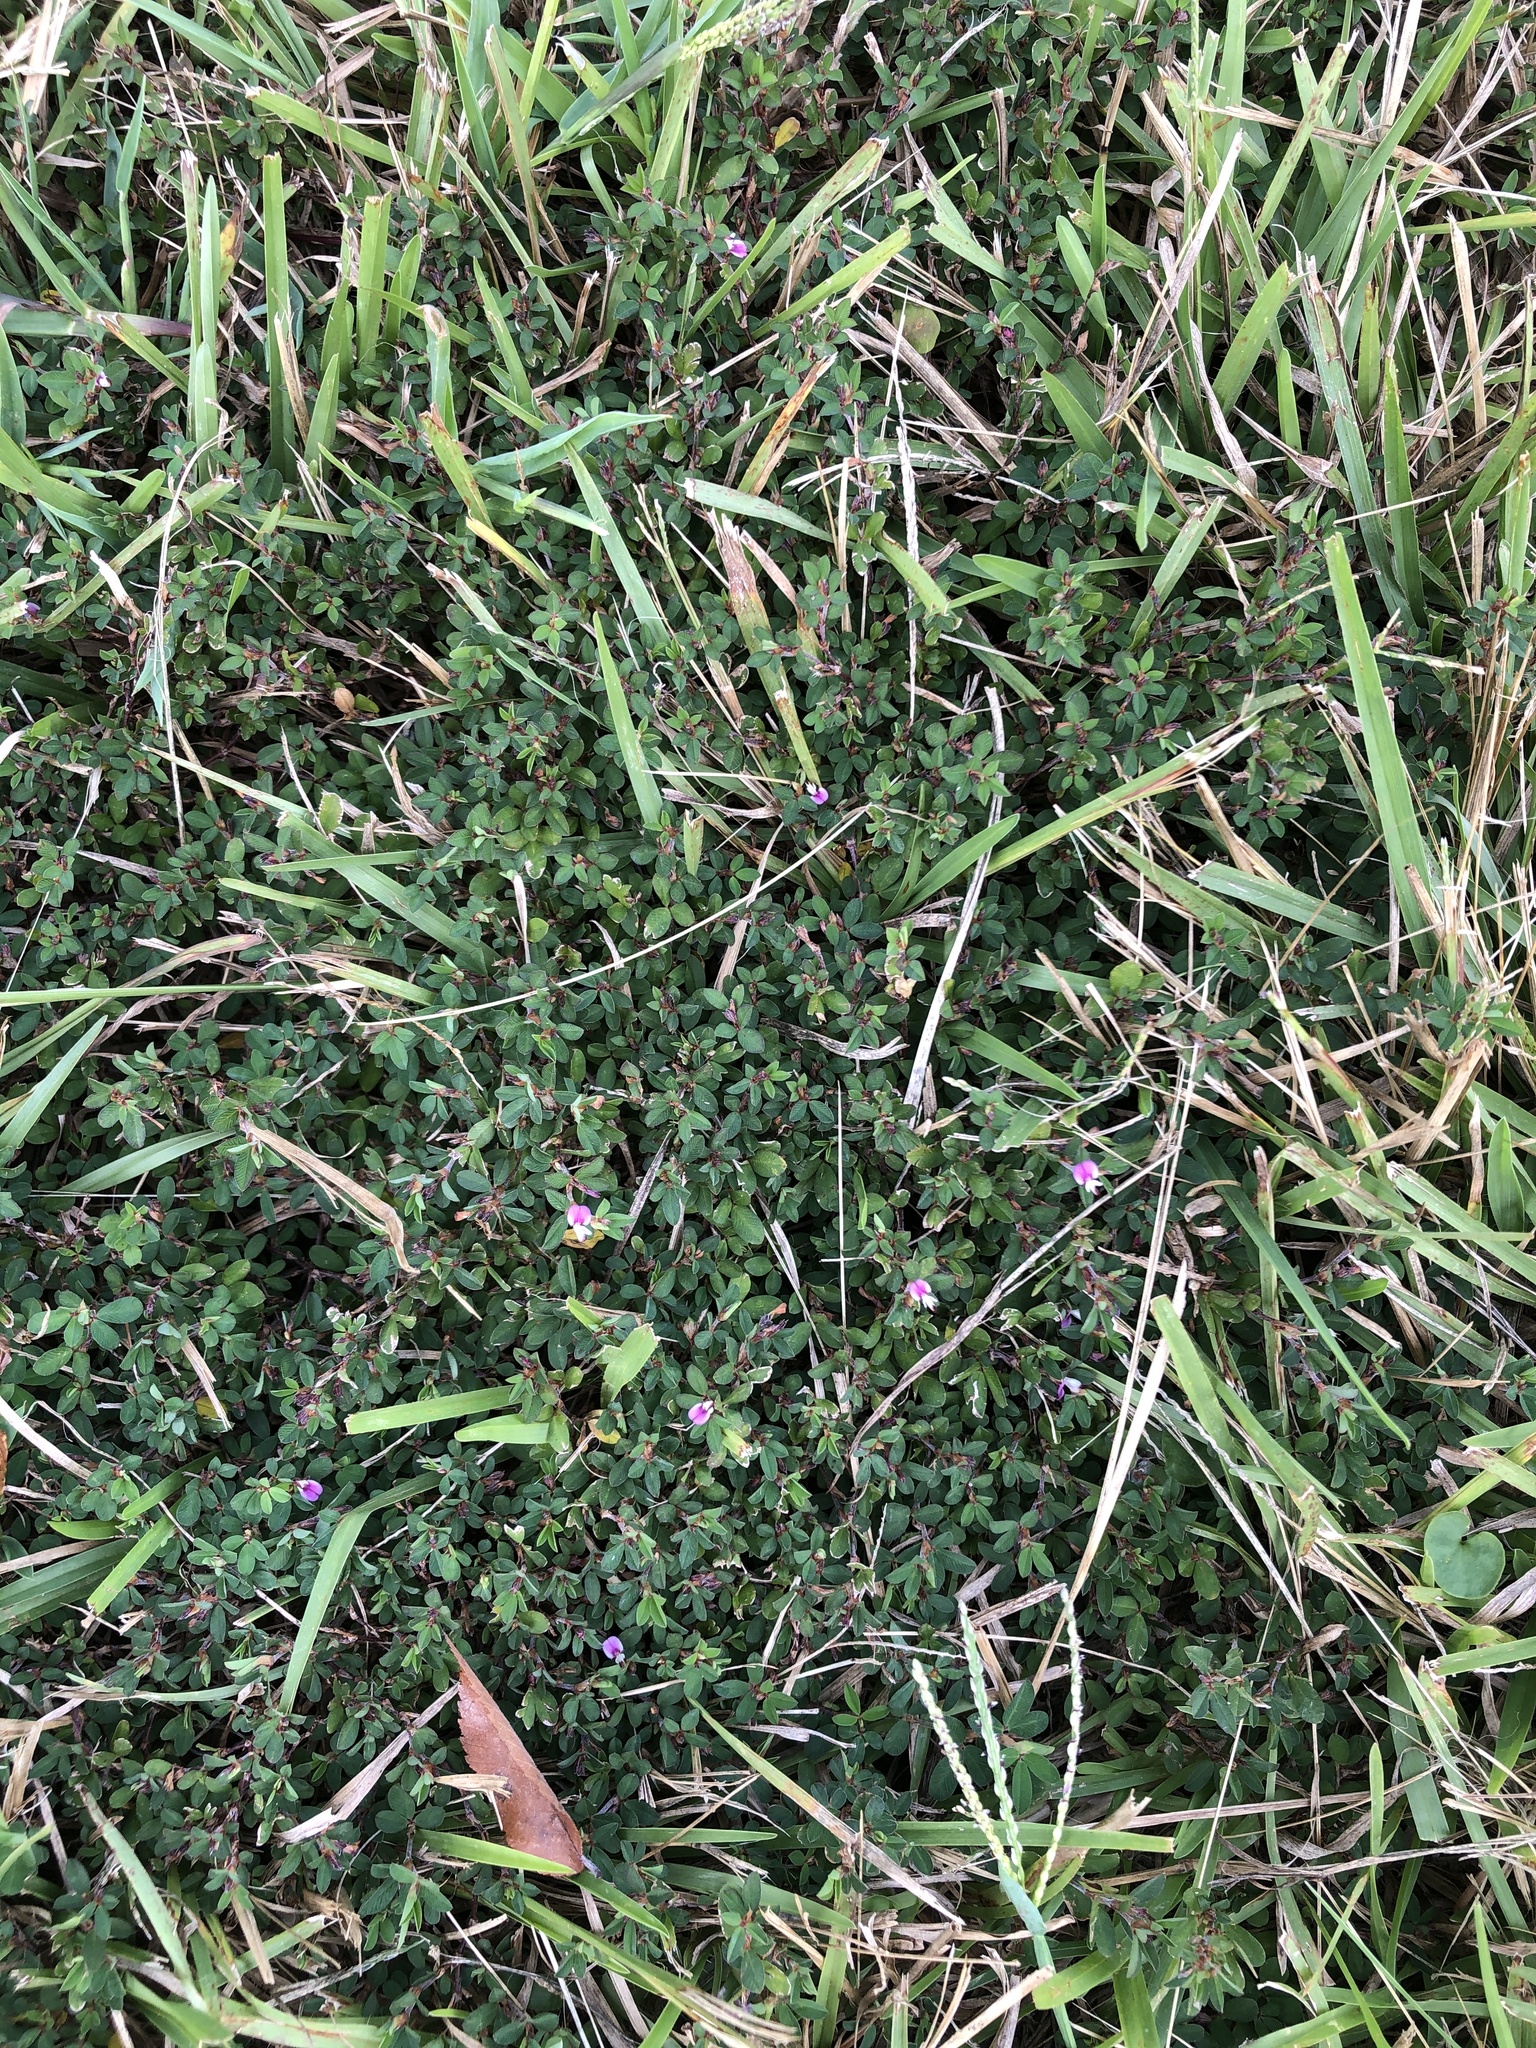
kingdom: Plantae
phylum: Tracheophyta
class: Magnoliopsida
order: Fabales
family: Fabaceae
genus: Kummerowia
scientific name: Kummerowia striata
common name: Japanese clover
